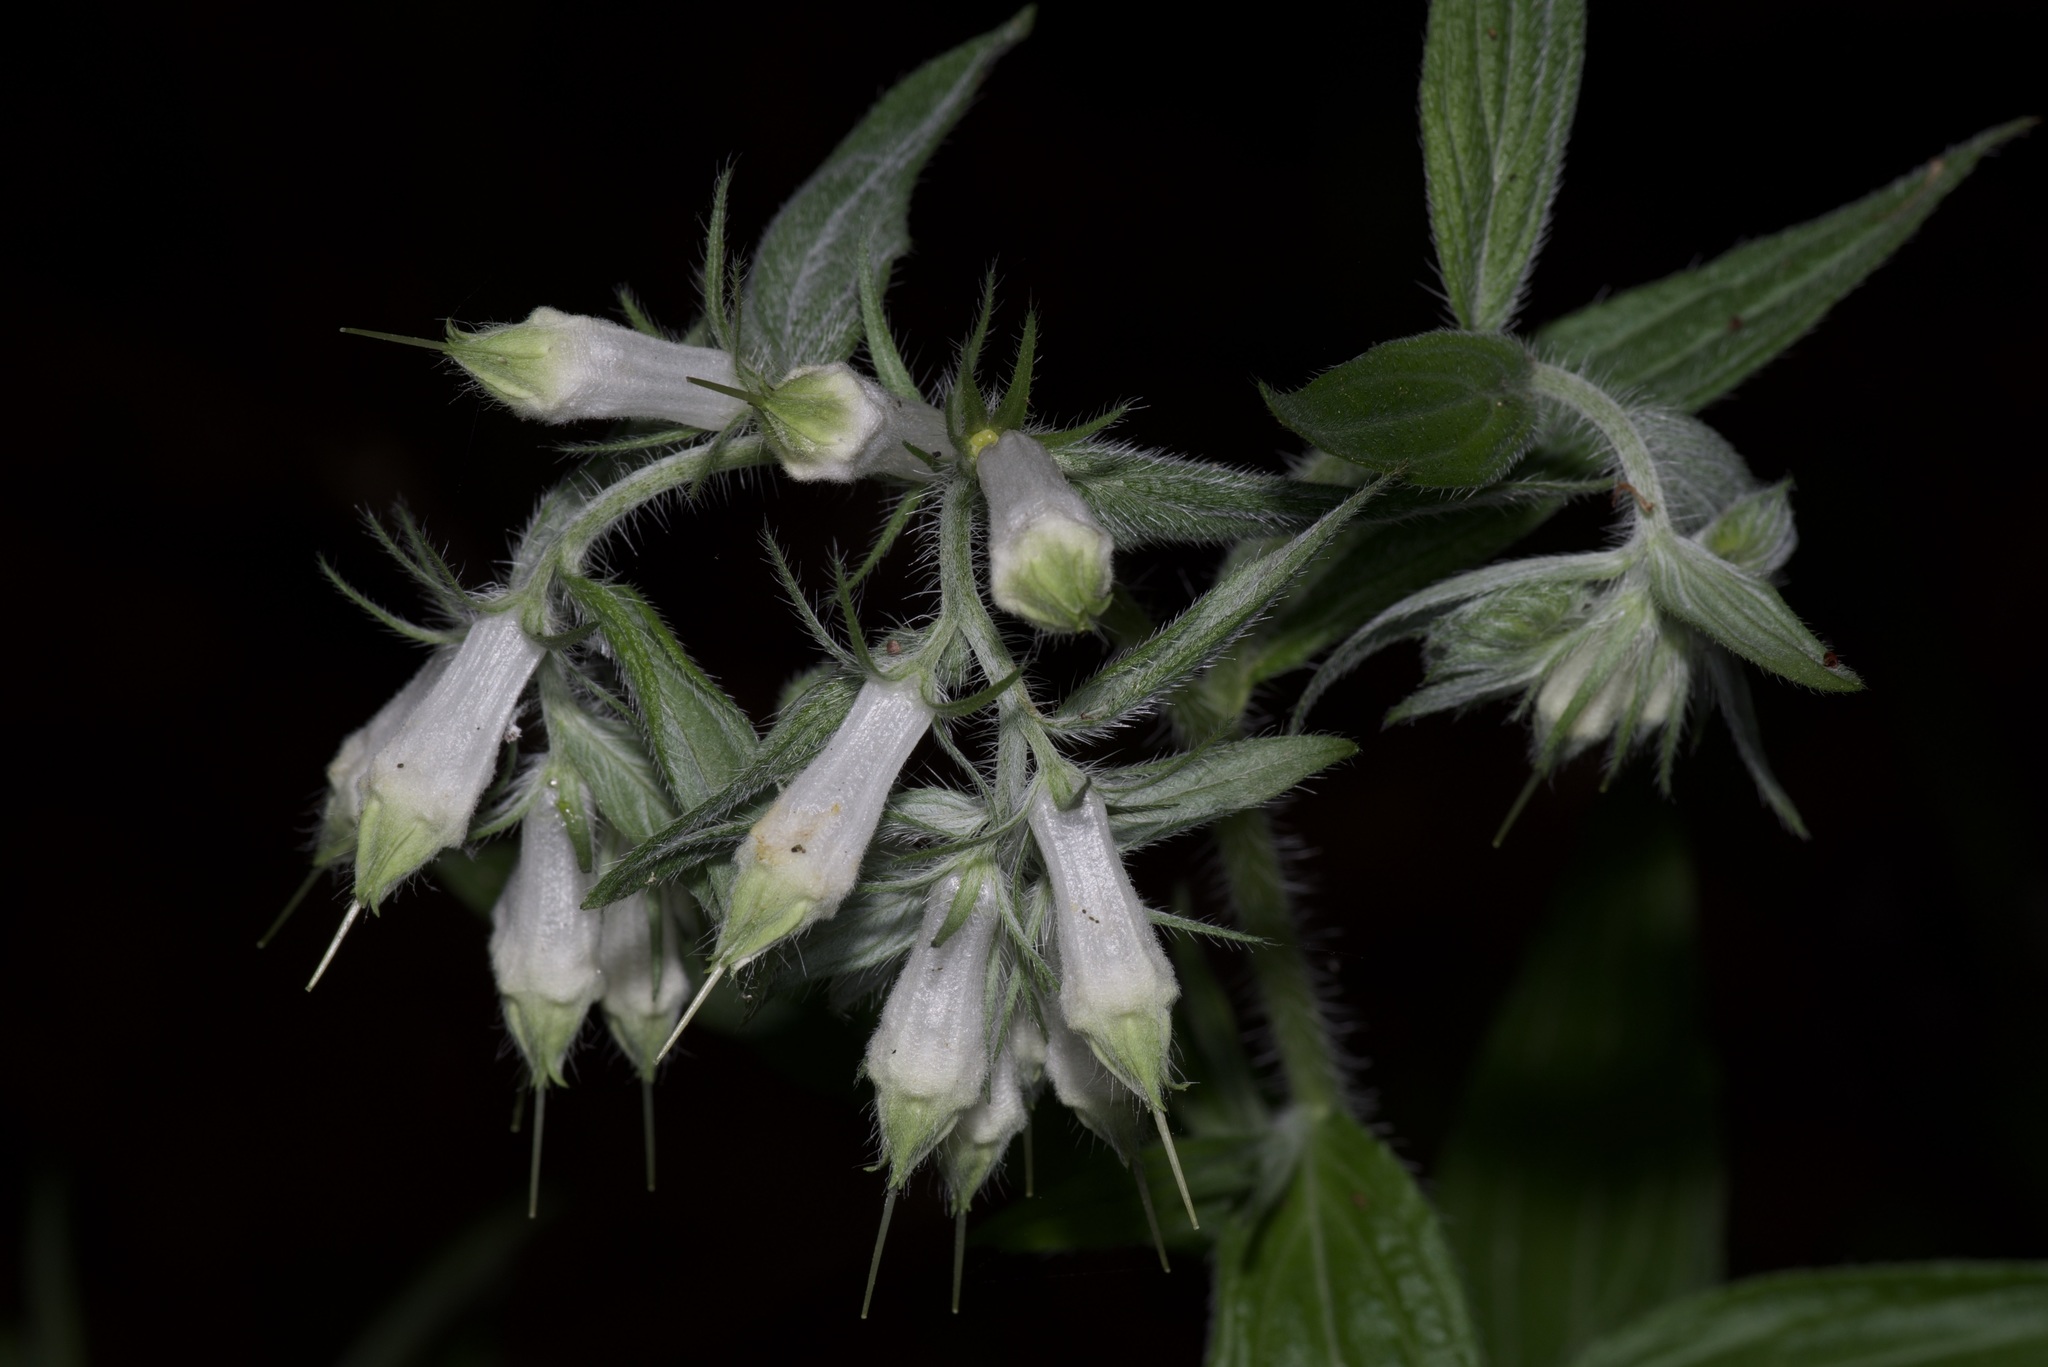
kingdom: Plantae
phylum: Tracheophyta
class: Magnoliopsida
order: Boraginales
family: Boraginaceae
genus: Lithospermum
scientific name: Lithospermum caroliniense
